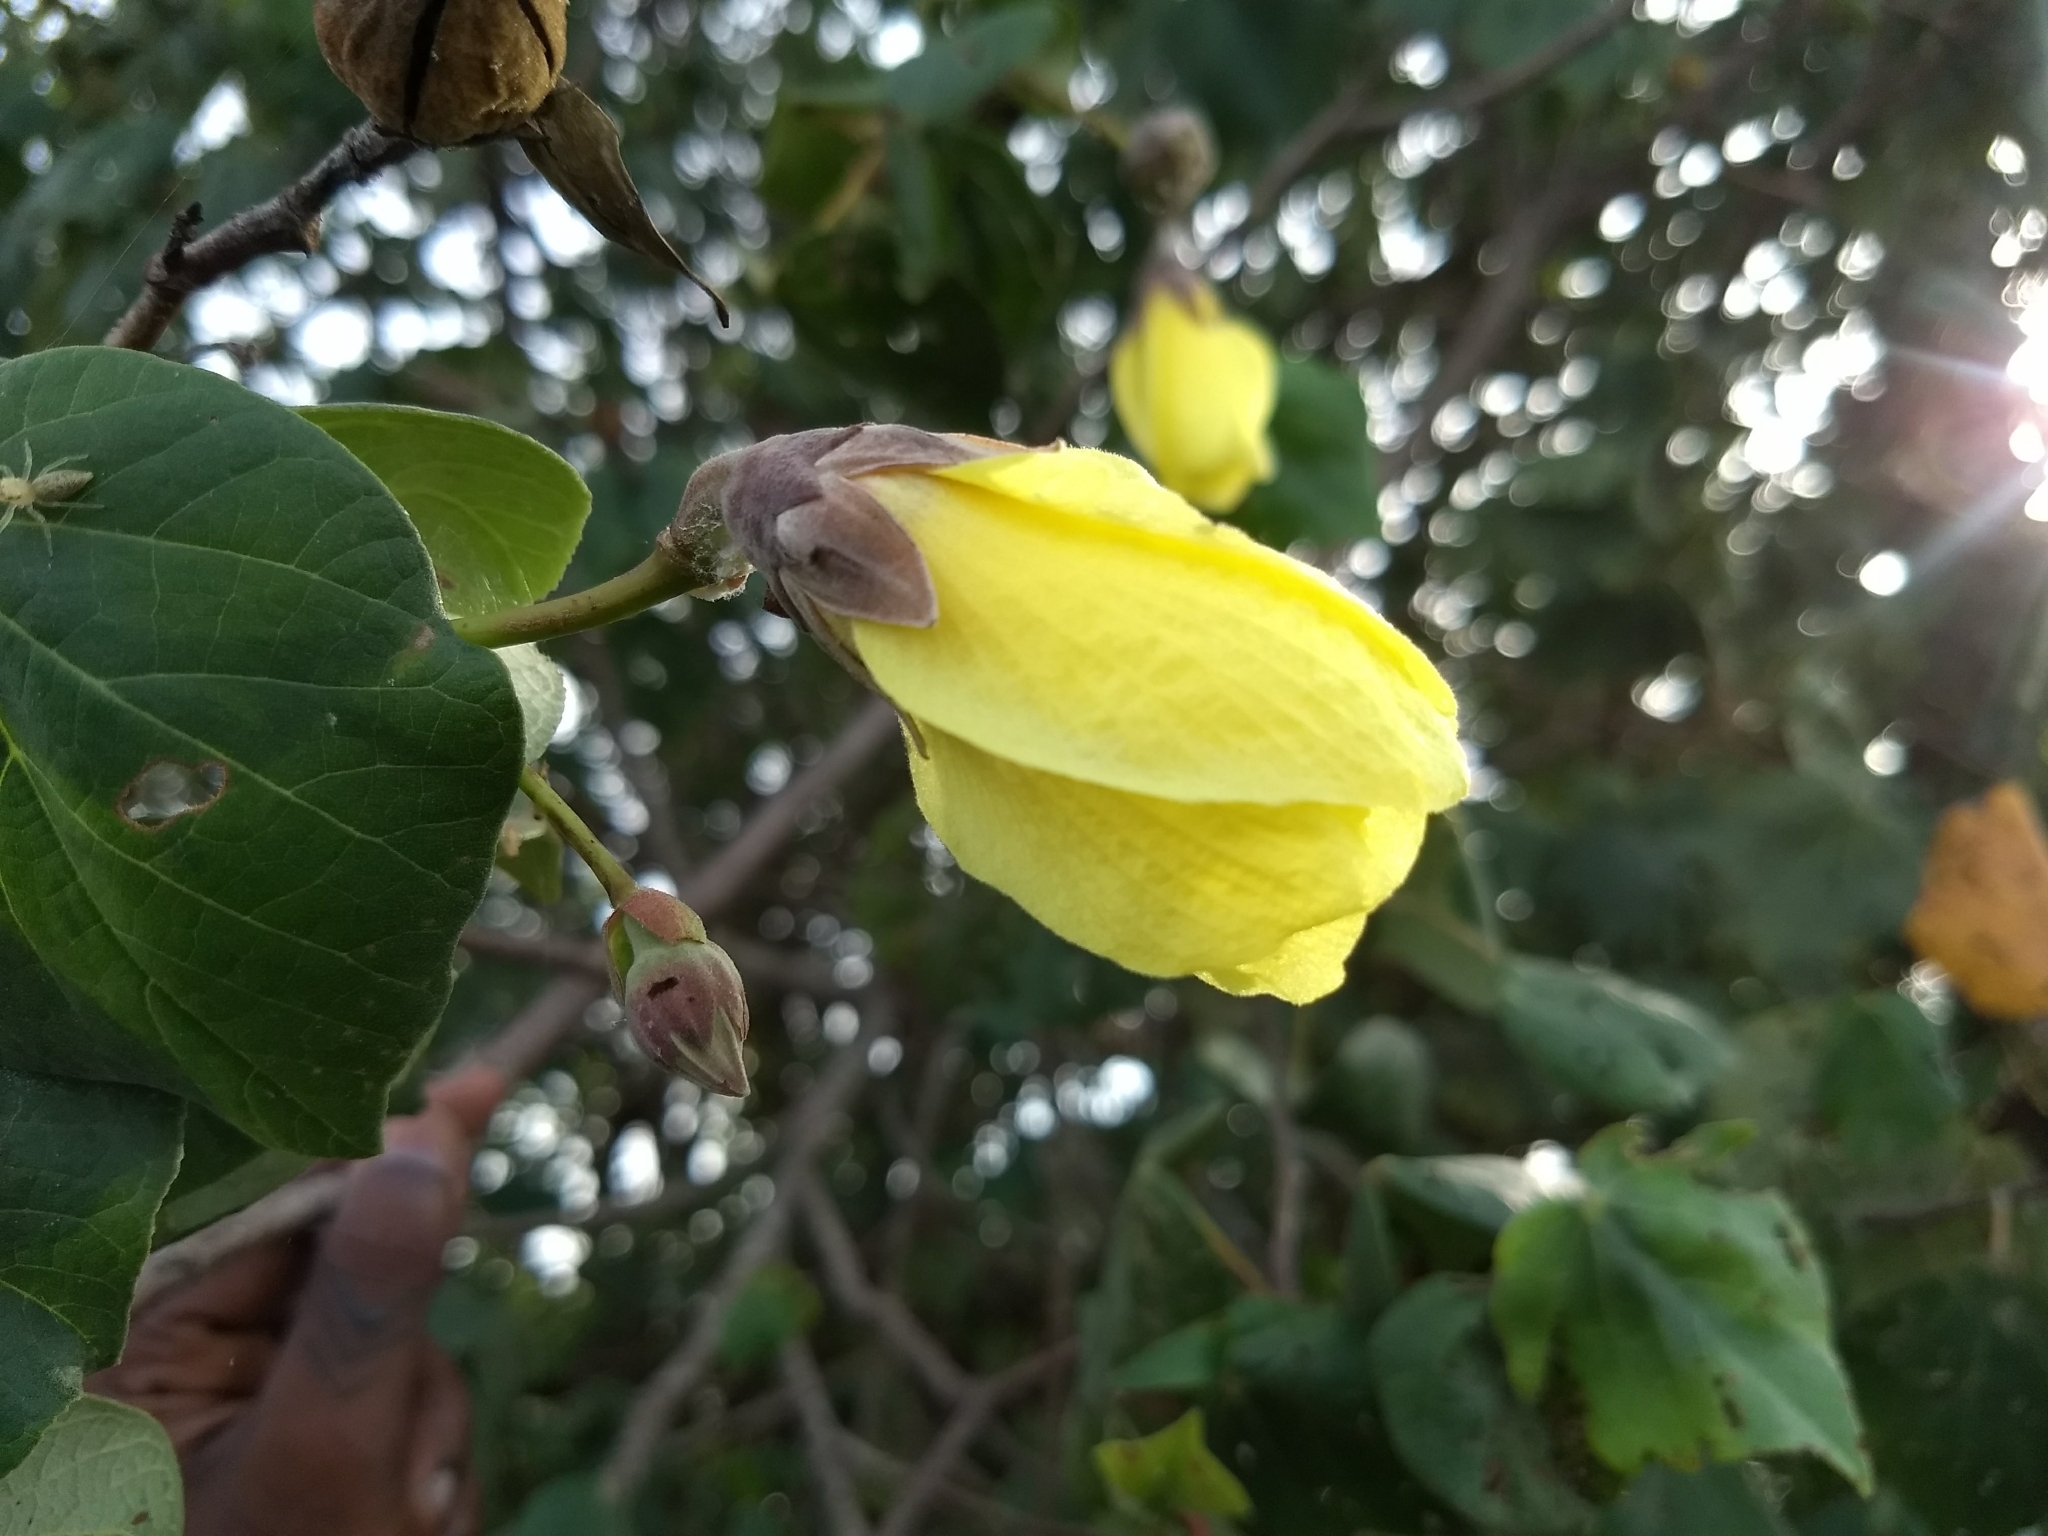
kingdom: Plantae
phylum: Tracheophyta
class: Magnoliopsida
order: Malvales
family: Malvaceae
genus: Talipariti
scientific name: Talipariti tiliaceum
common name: Sea hibiscus
